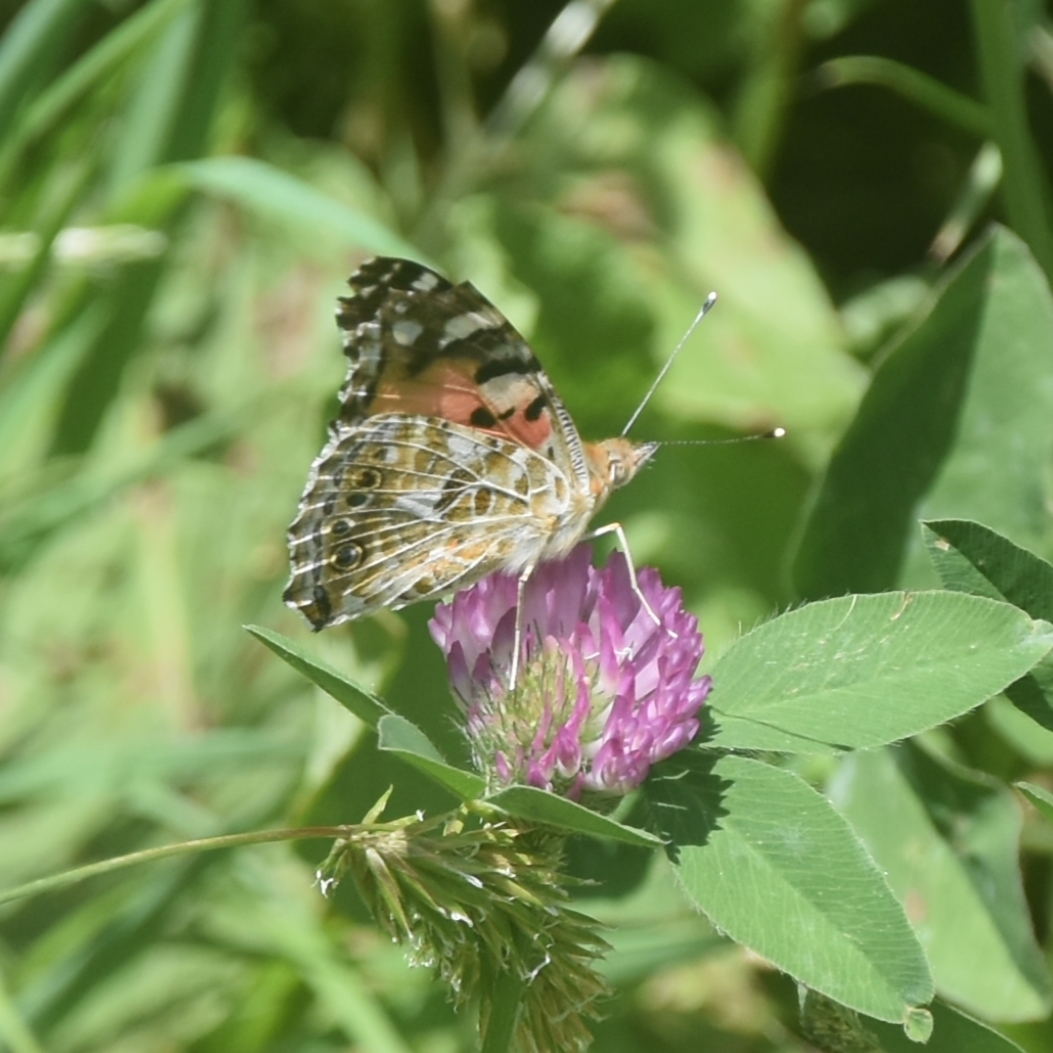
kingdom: Animalia
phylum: Arthropoda
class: Insecta
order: Lepidoptera
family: Nymphalidae
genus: Vanessa
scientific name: Vanessa cardui
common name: Painted lady
